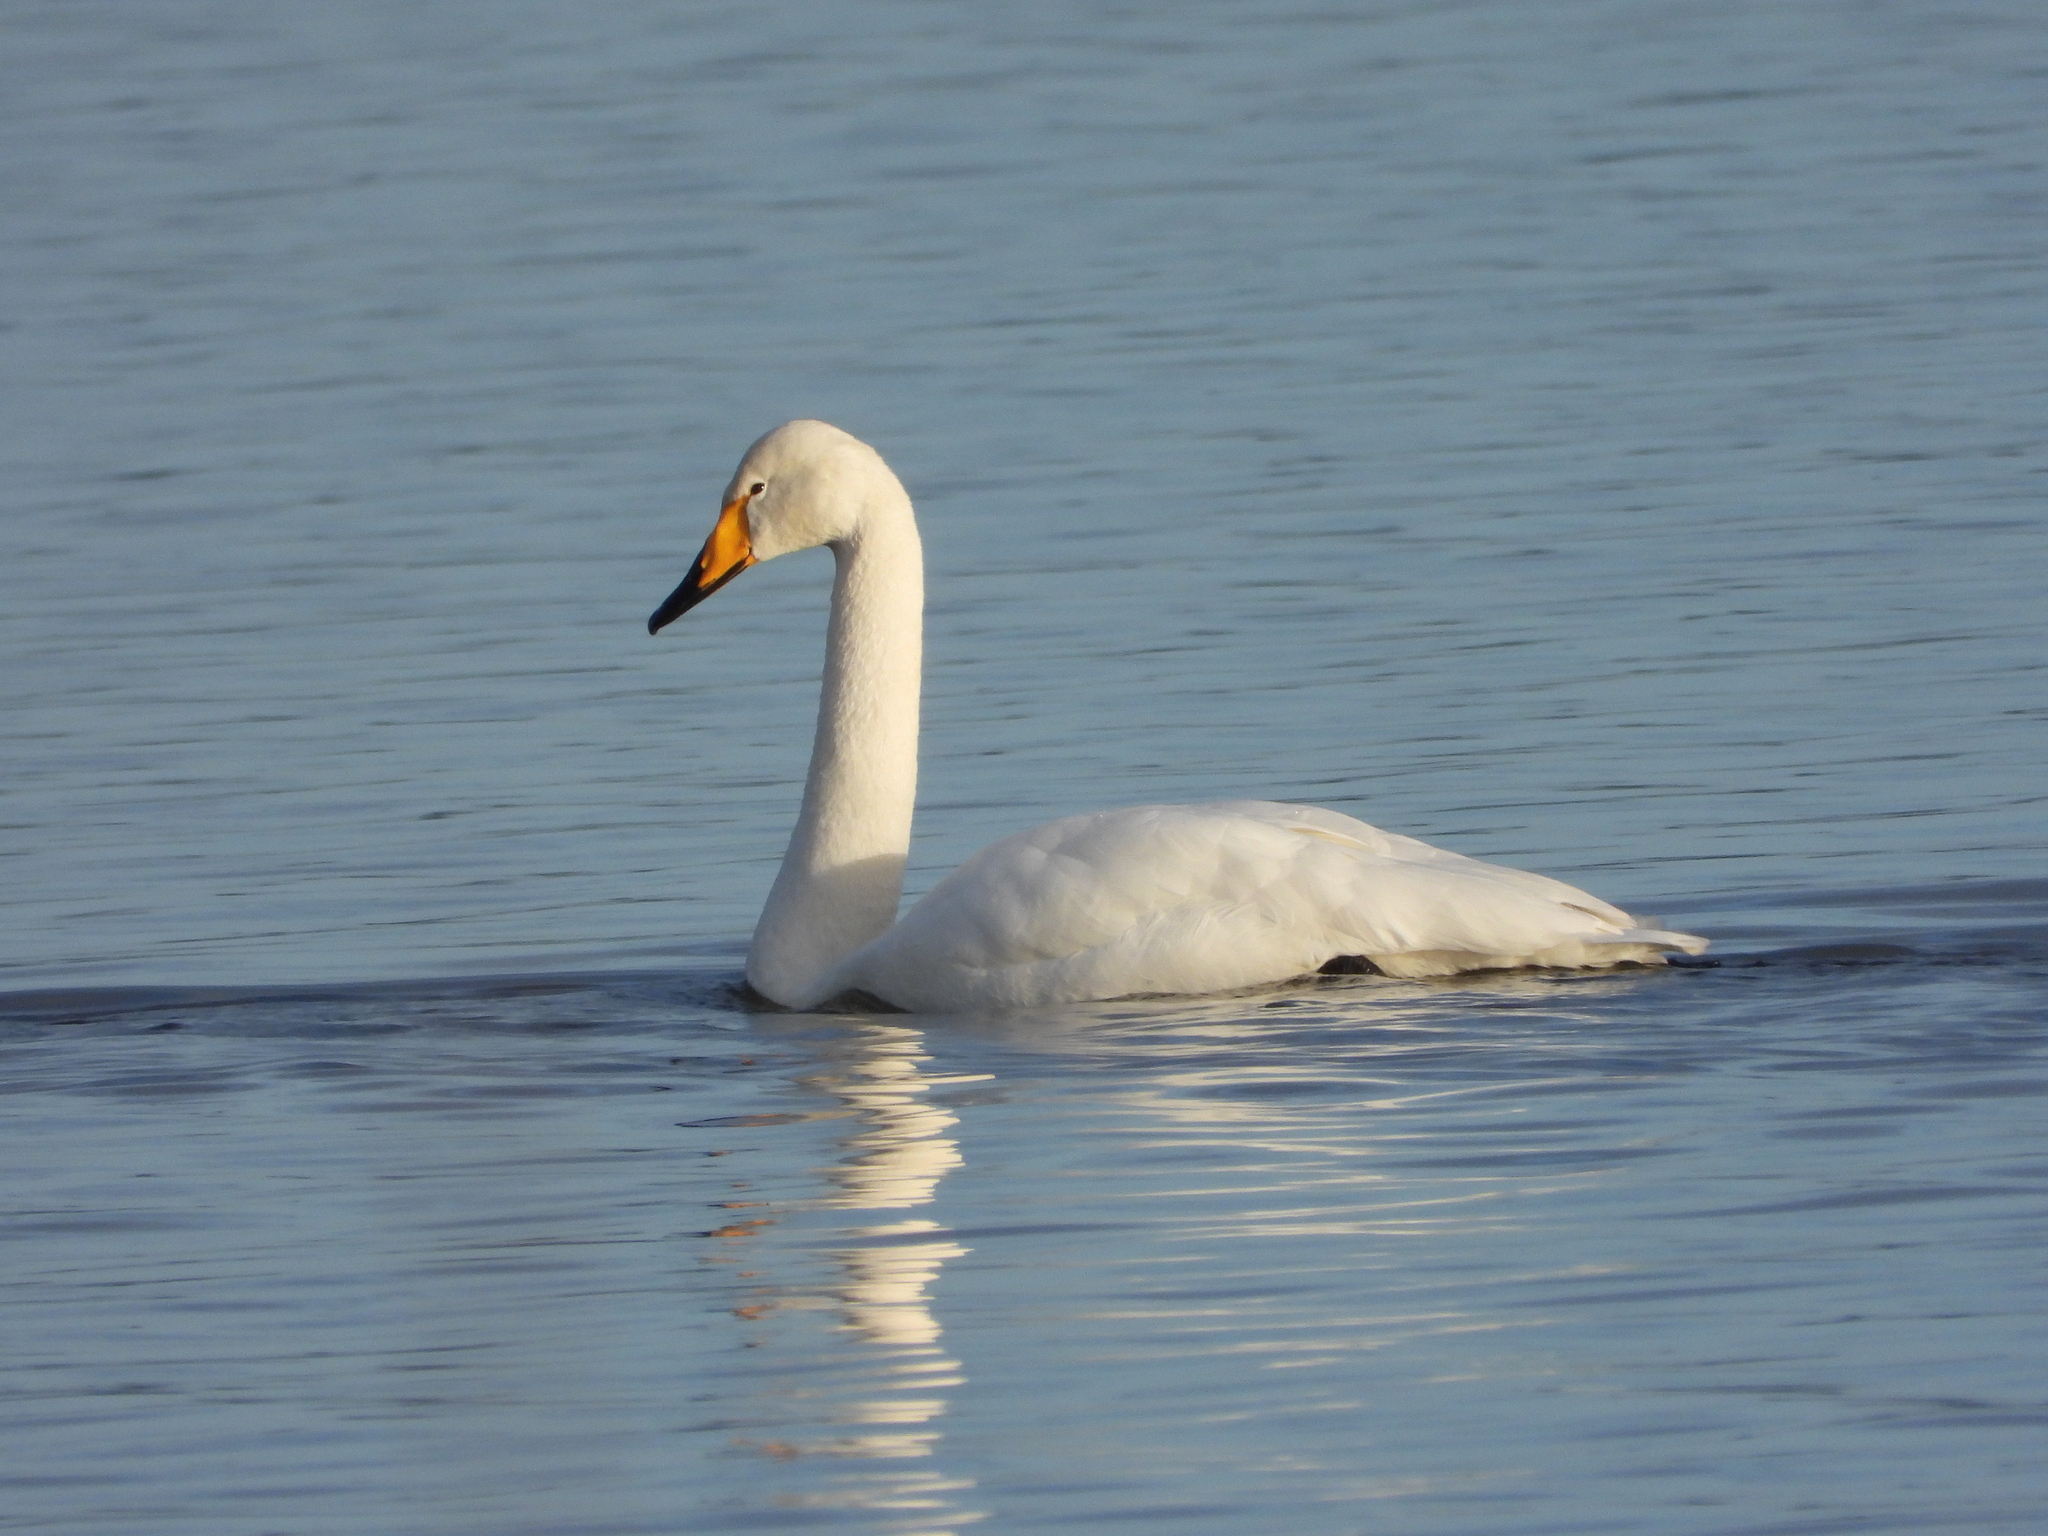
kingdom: Animalia
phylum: Chordata
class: Aves
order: Anseriformes
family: Anatidae
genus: Cygnus
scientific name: Cygnus cygnus
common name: Whooper swan
